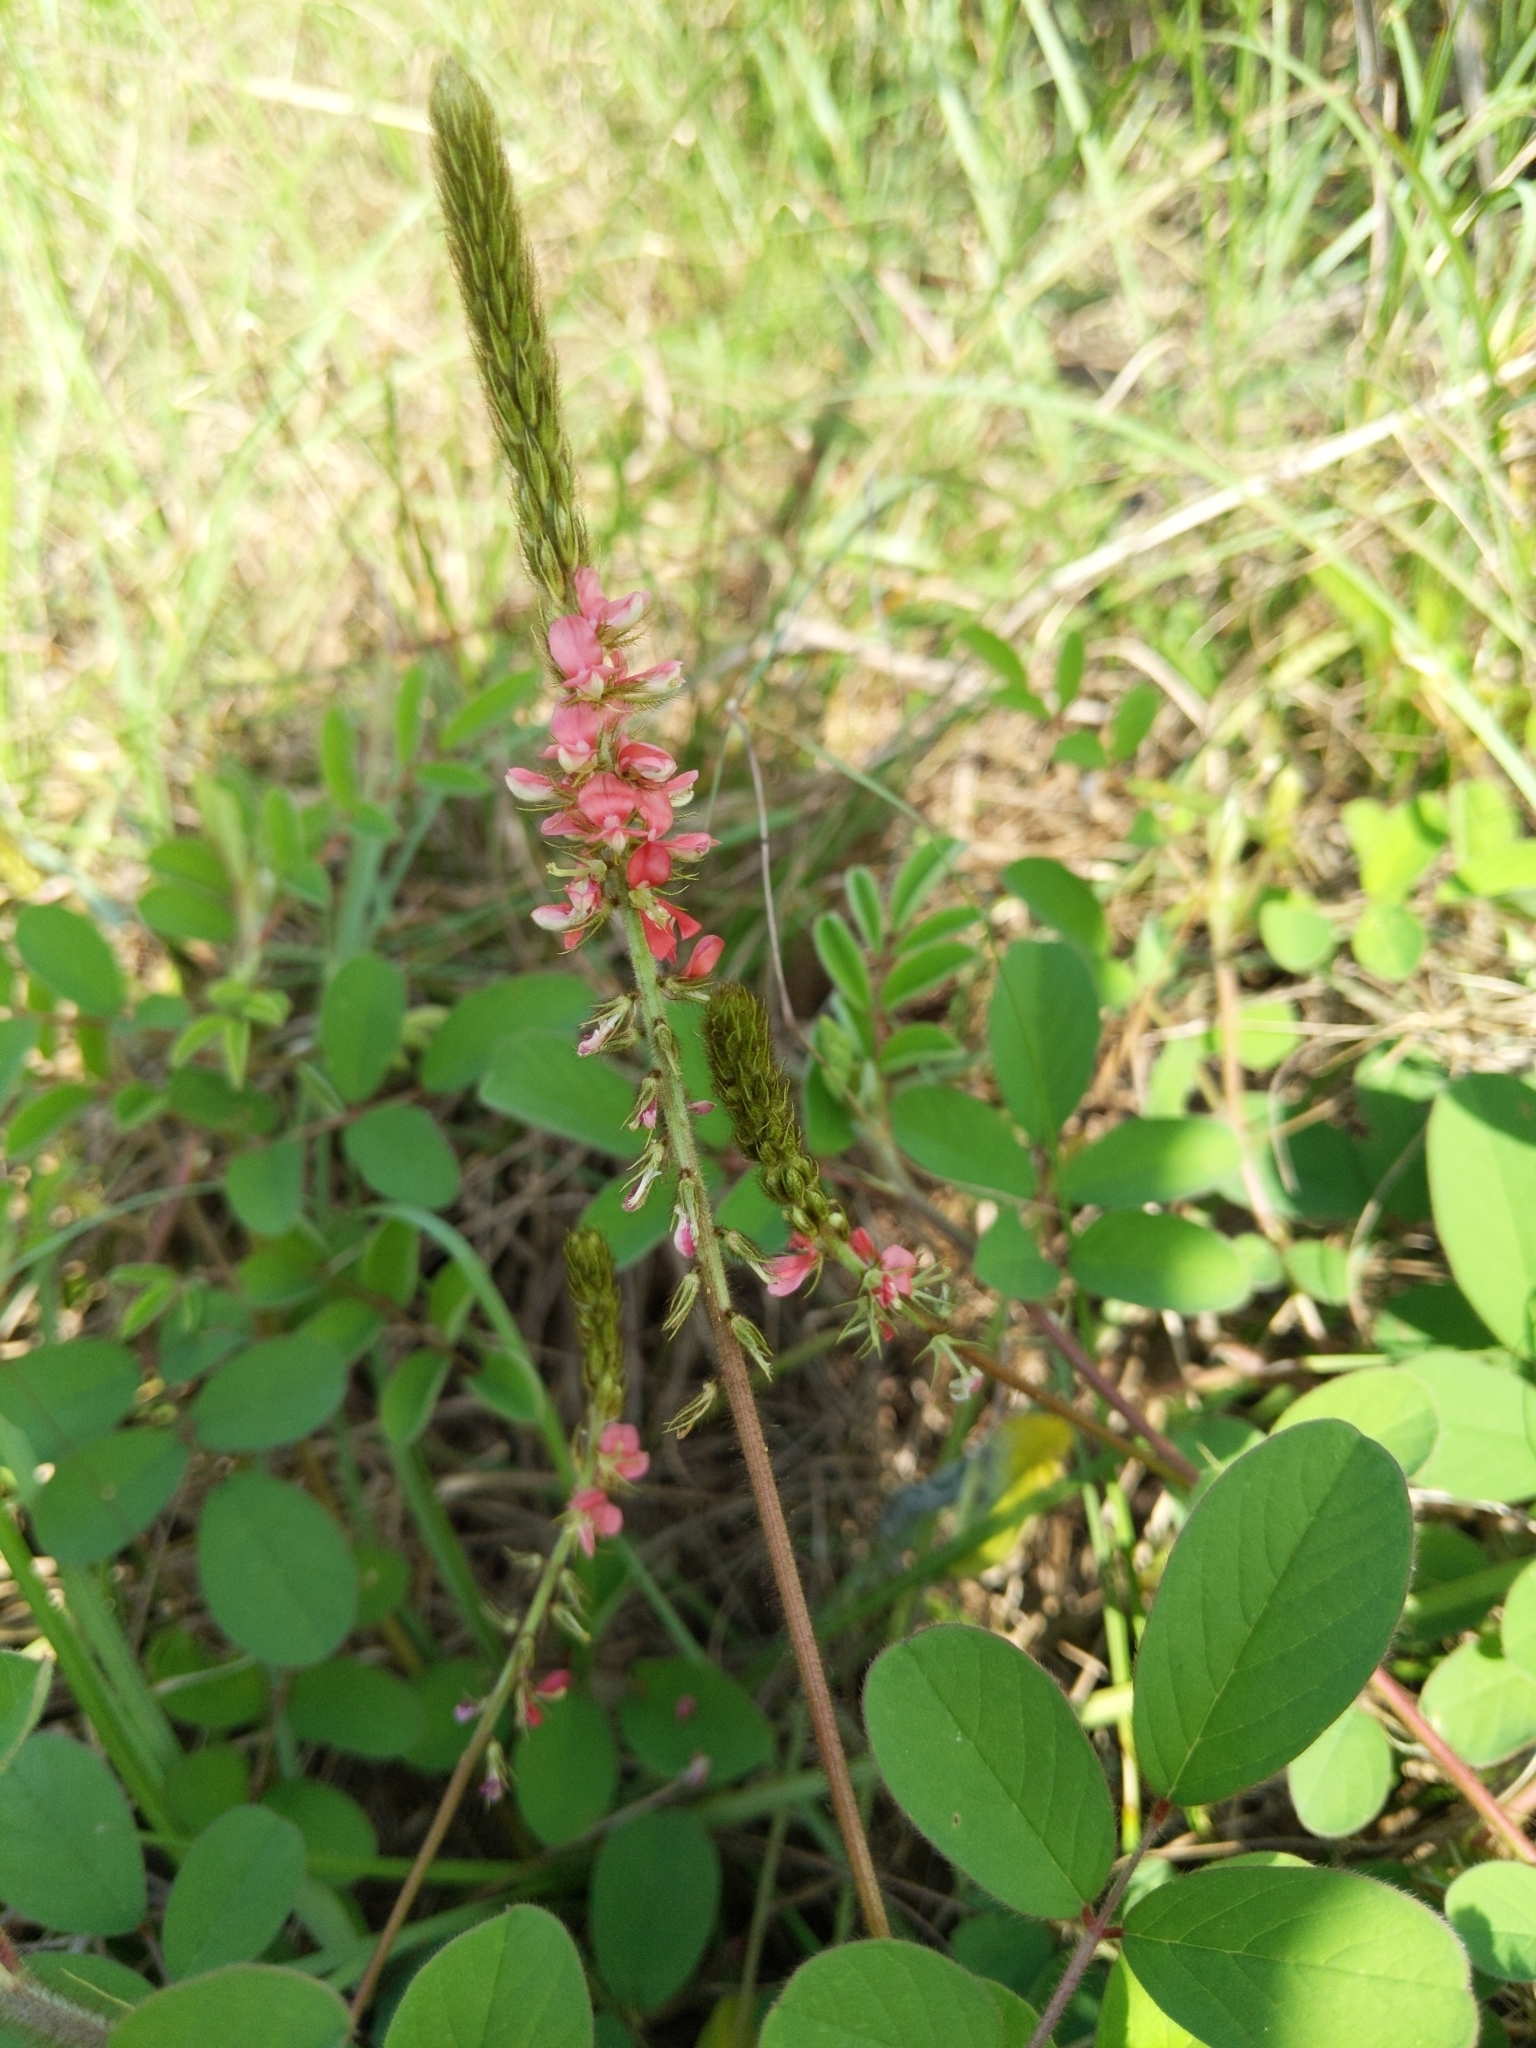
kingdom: Plantae
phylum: Tracheophyta
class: Magnoliopsida
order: Fabales
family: Fabaceae
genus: Indigofera
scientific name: Indigofera hirsuta
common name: Hairy indigo
